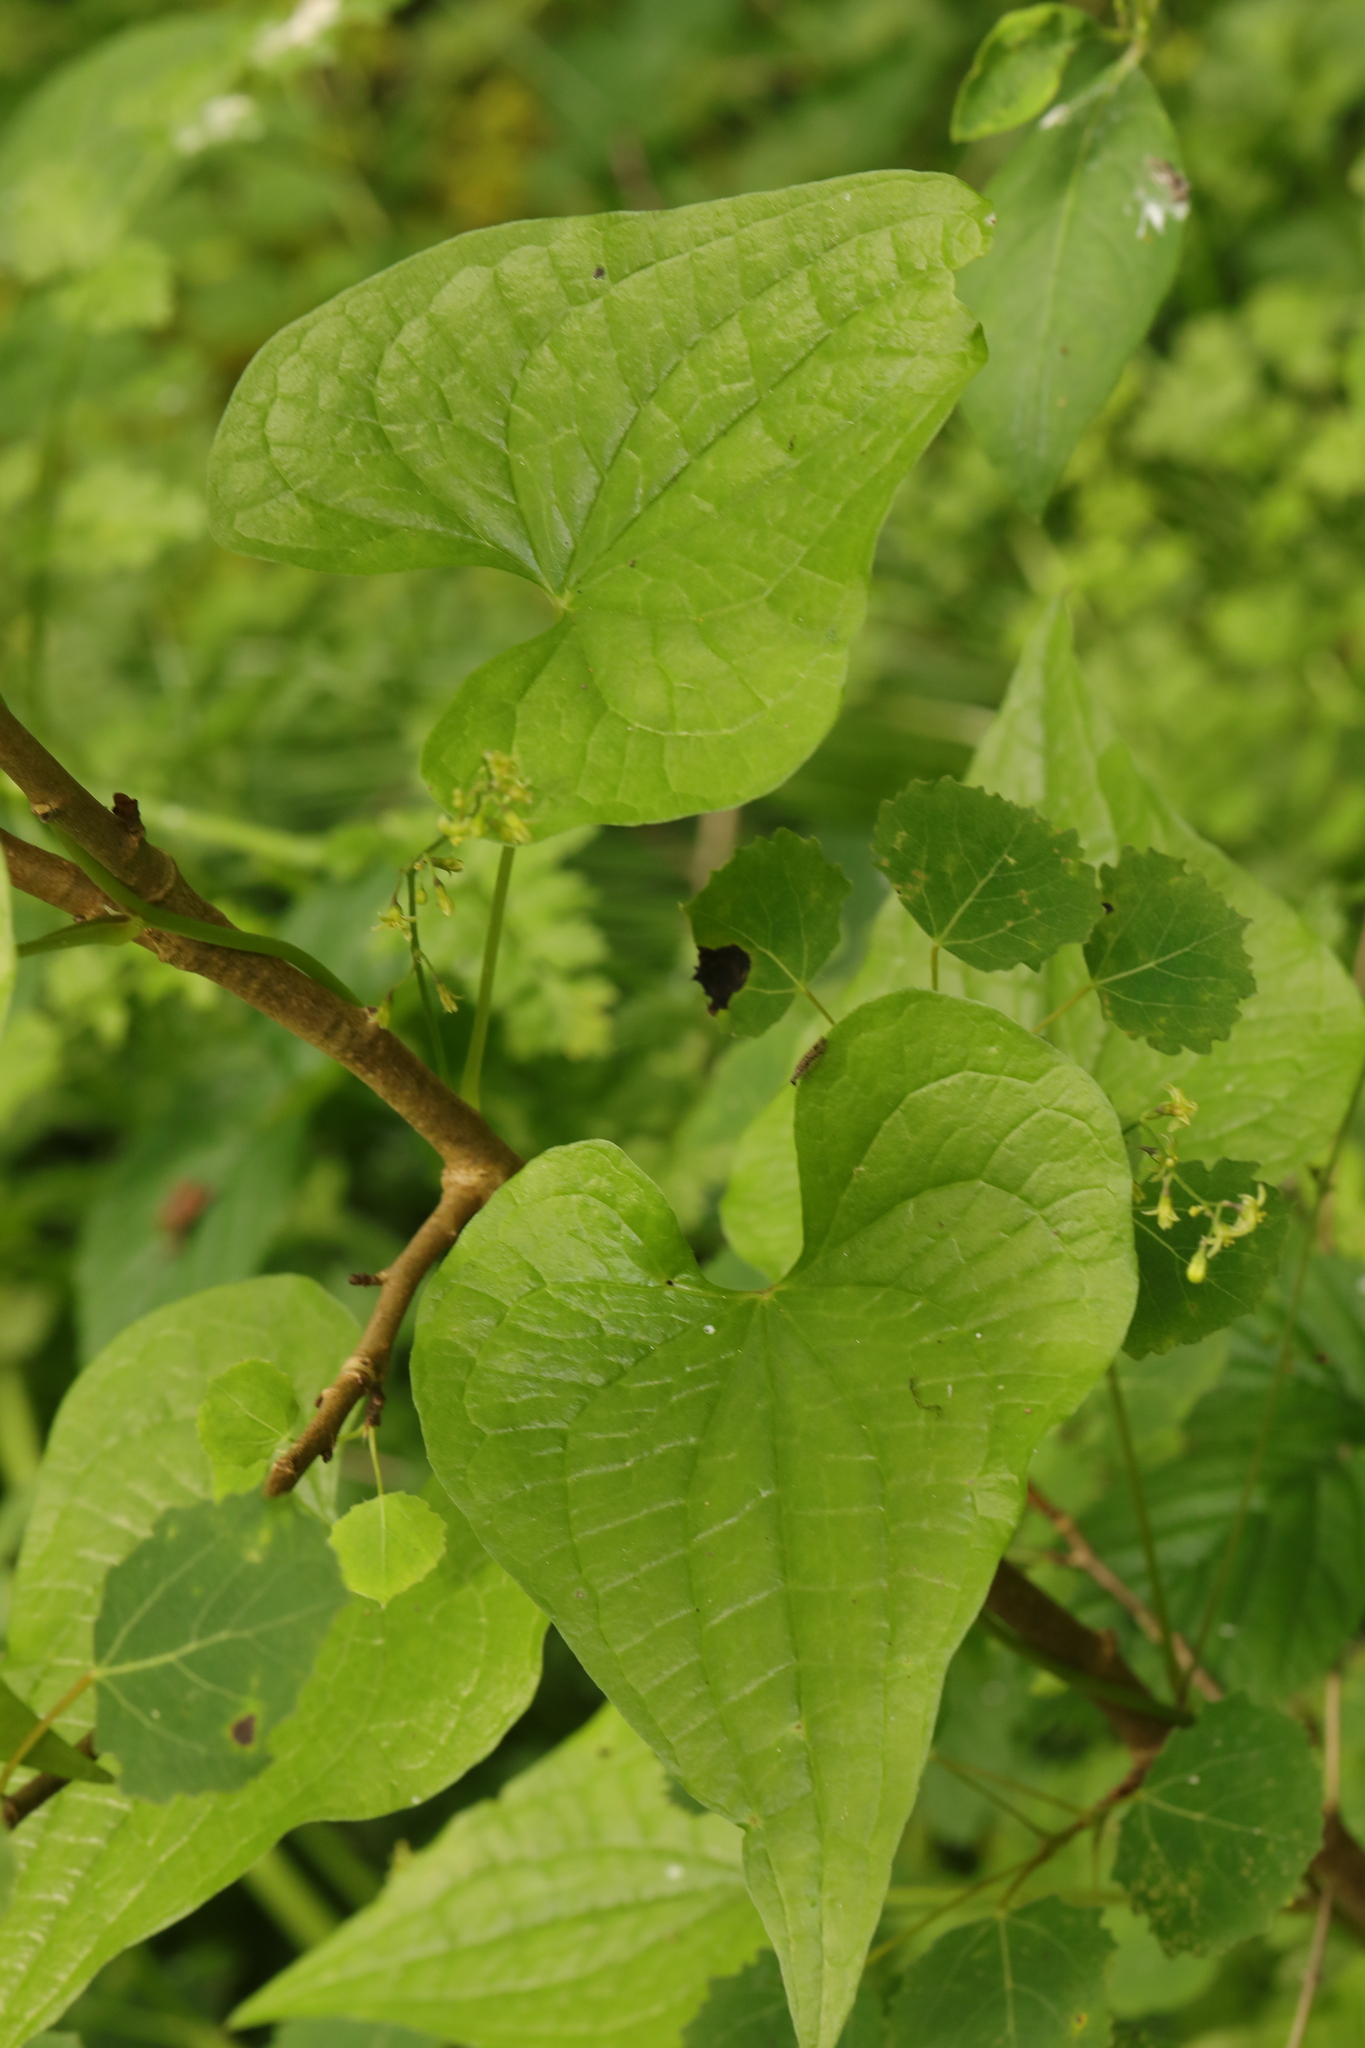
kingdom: Plantae
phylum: Tracheophyta
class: Liliopsida
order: Dioscoreales
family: Dioscoreaceae
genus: Dioscorea
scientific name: Dioscorea communis
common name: Black-bindweed
